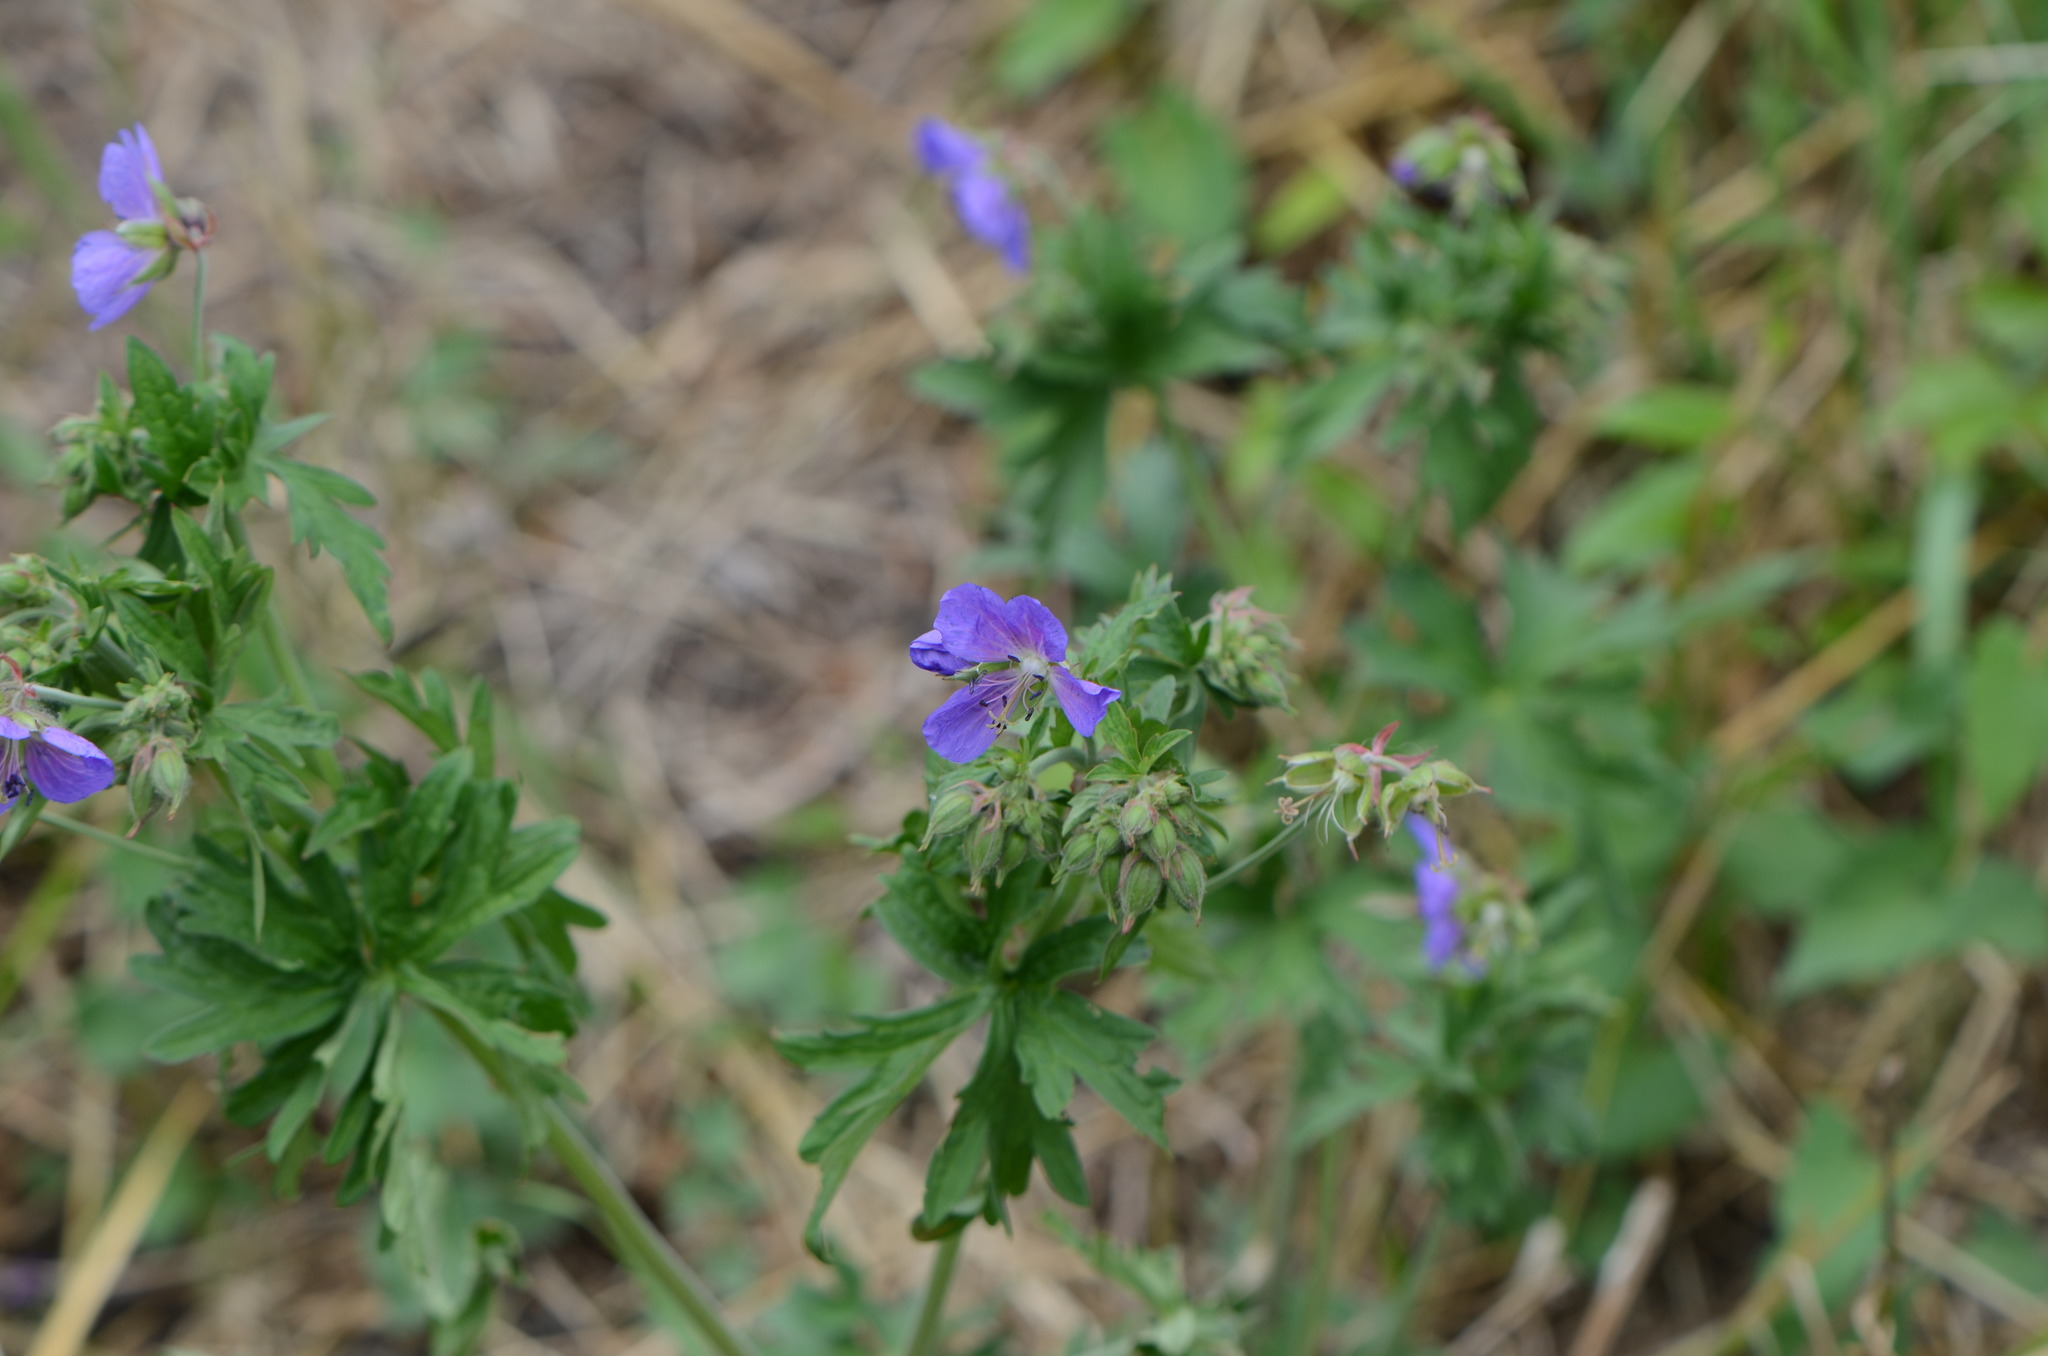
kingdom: Plantae
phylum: Tracheophyta
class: Magnoliopsida
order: Geraniales
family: Geraniaceae
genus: Geranium
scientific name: Geranium pratense
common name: Meadow crane's-bill
